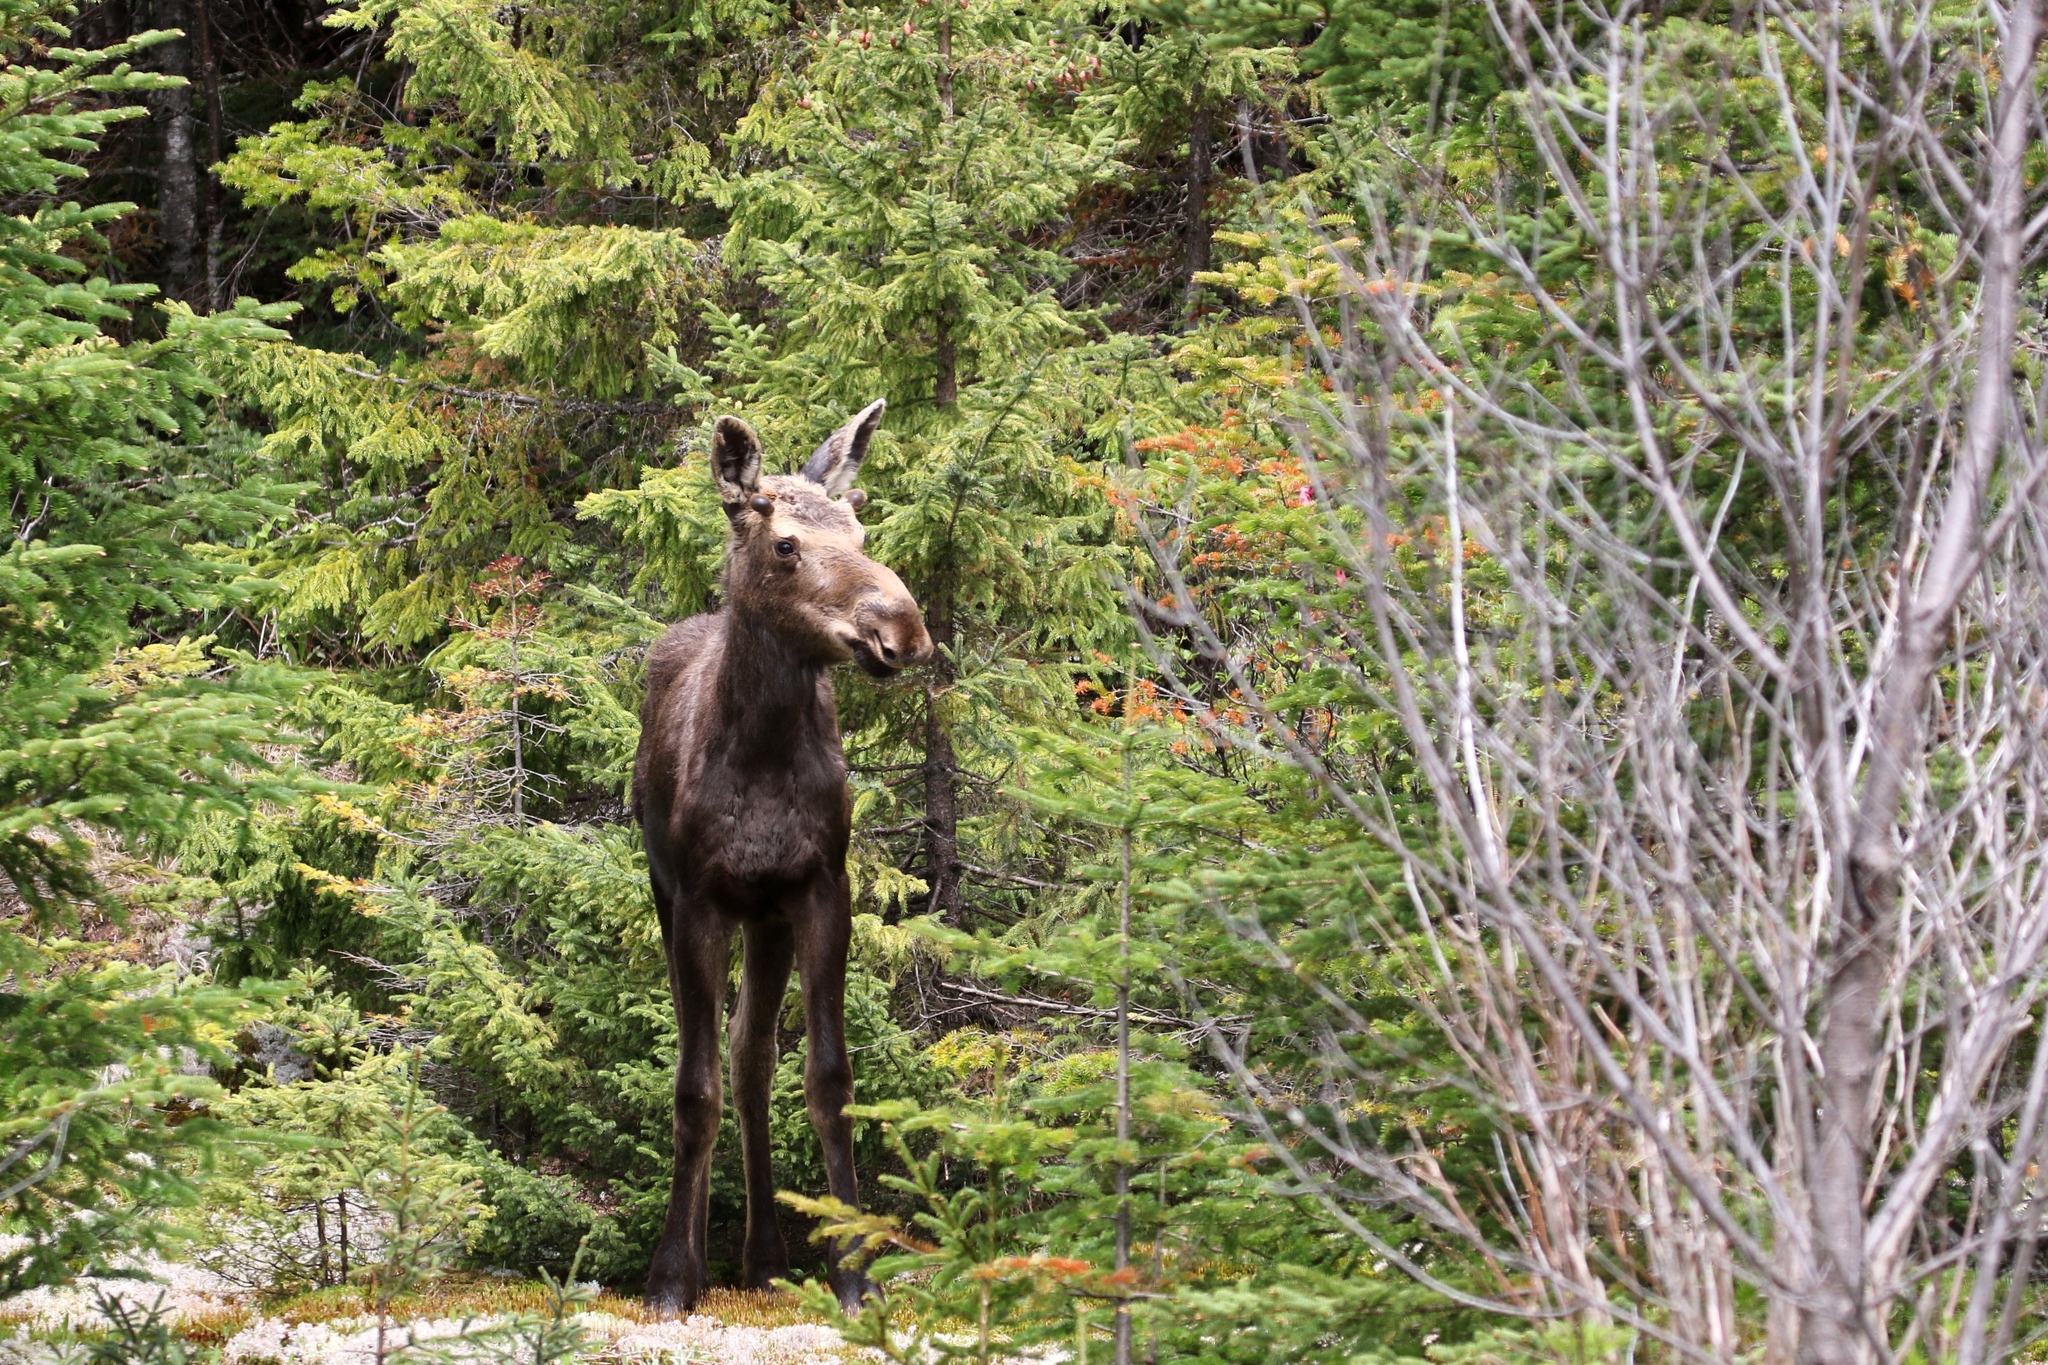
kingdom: Animalia
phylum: Chordata
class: Mammalia
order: Artiodactyla
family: Cervidae
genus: Alces
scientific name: Alces alces
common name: Moose
